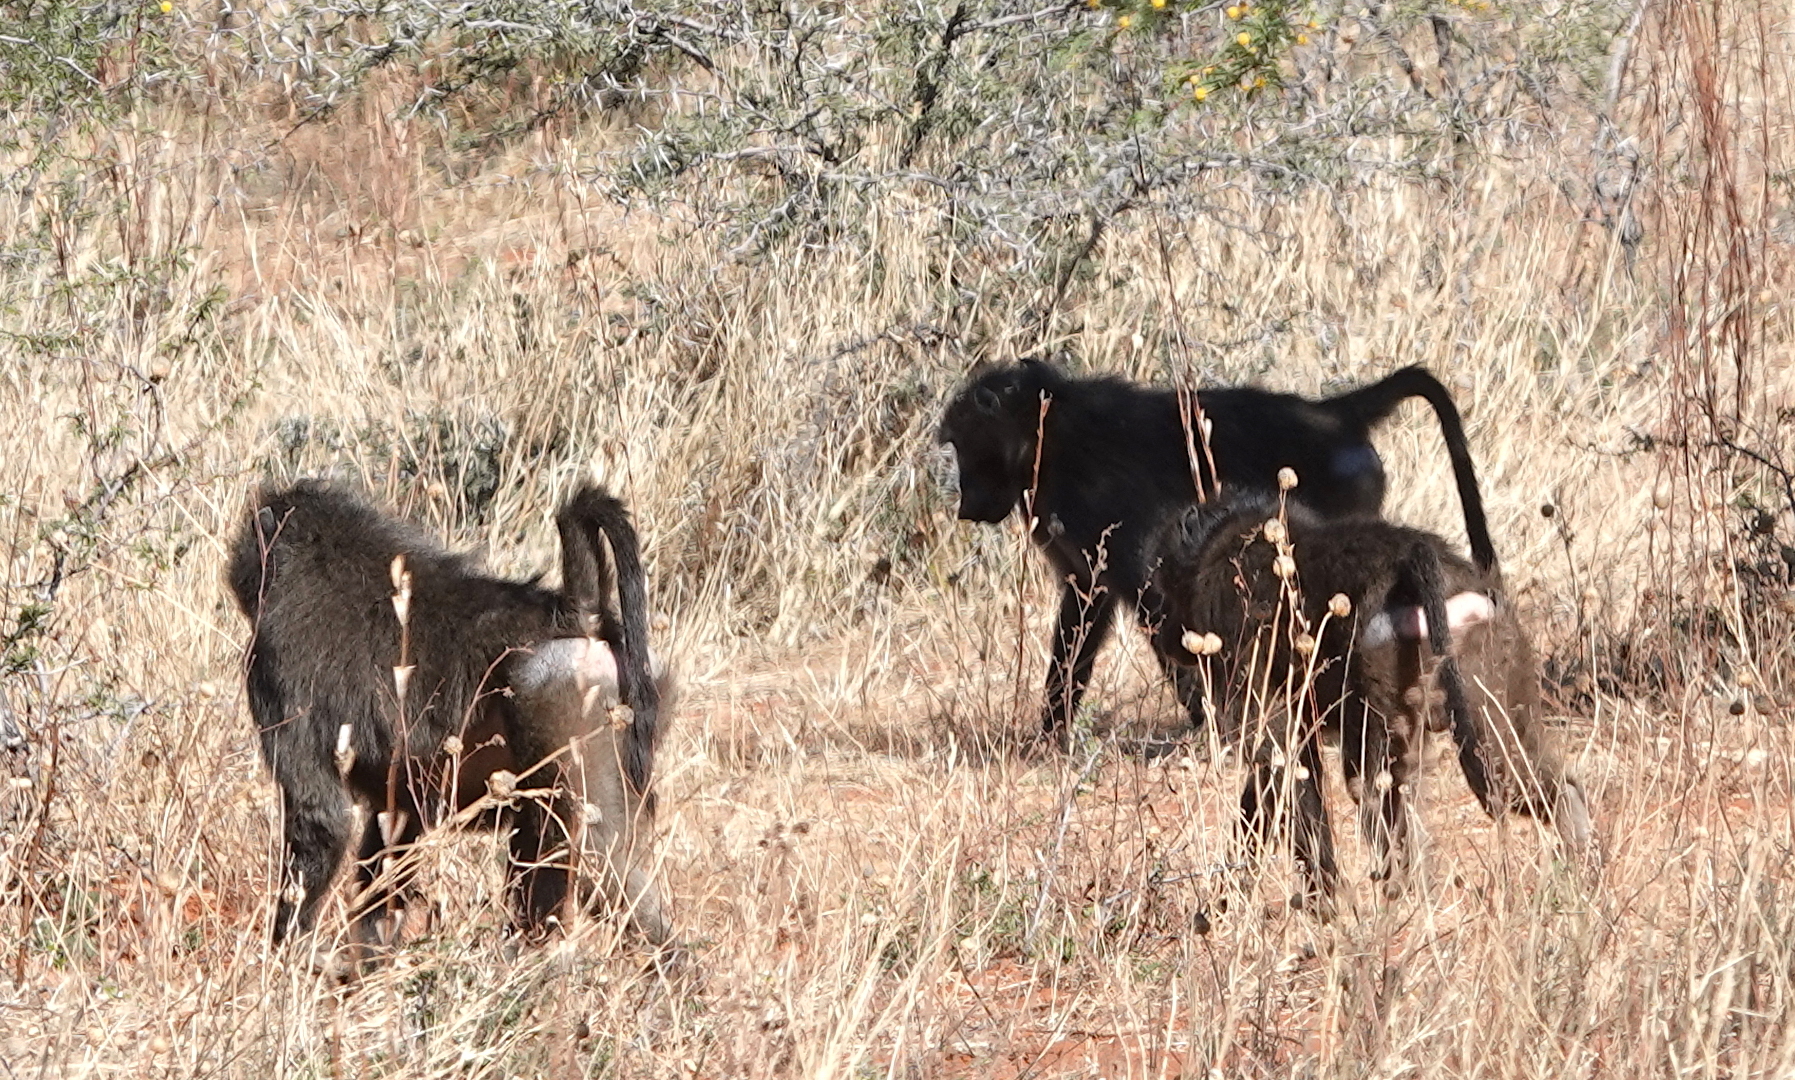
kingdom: Animalia
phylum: Chordata
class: Mammalia
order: Primates
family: Cercopithecidae
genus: Papio
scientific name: Papio ursinus
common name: Chacma baboon
